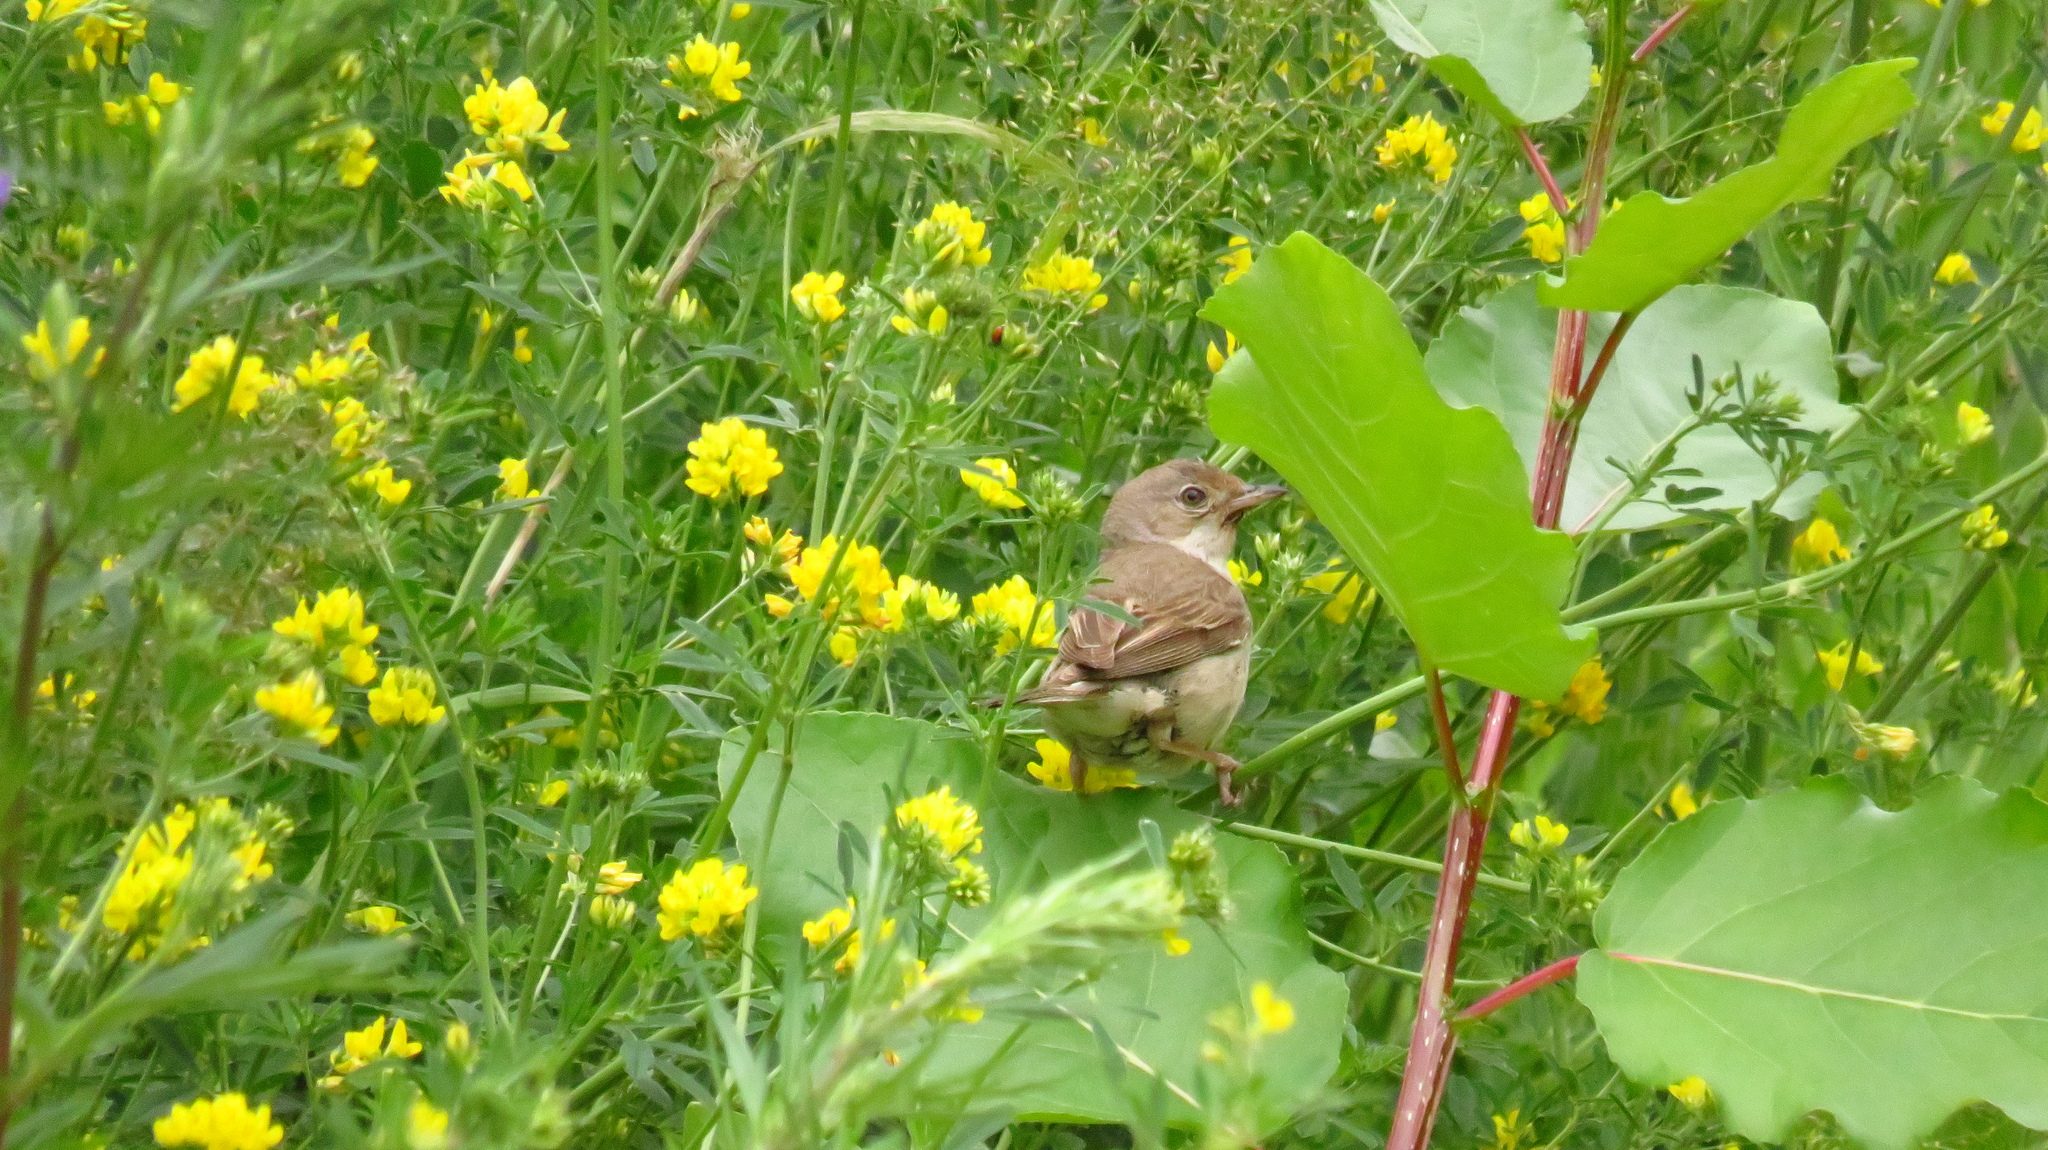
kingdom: Animalia
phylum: Chordata
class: Aves
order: Passeriformes
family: Sylviidae
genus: Sylvia
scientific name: Sylvia communis
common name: Common whitethroat
